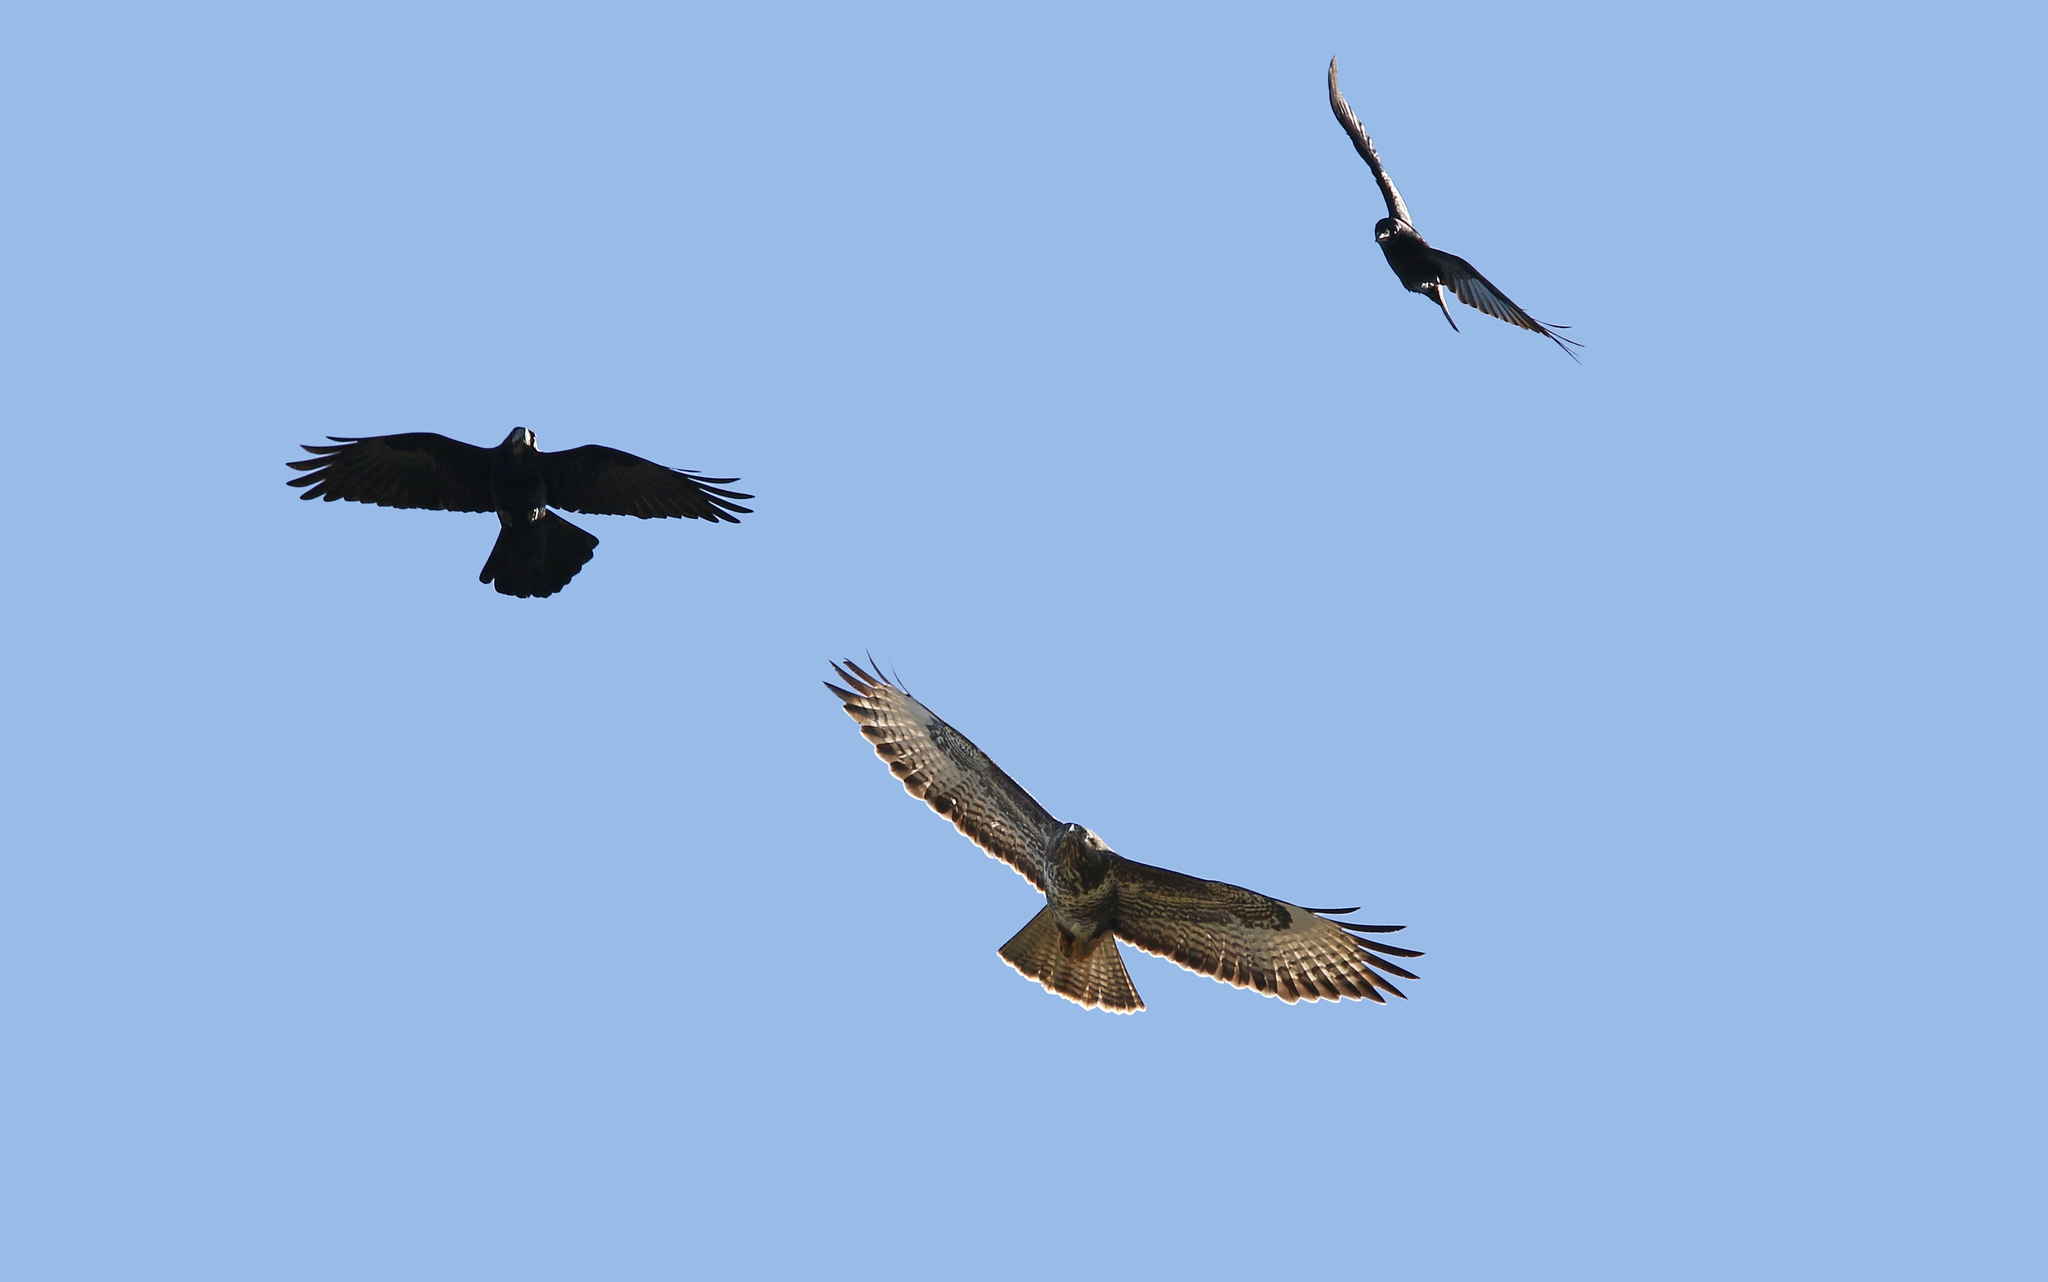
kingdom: Animalia
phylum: Chordata
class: Aves
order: Accipitriformes
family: Accipitridae
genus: Buteo
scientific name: Buteo buteo
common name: Common buzzard
